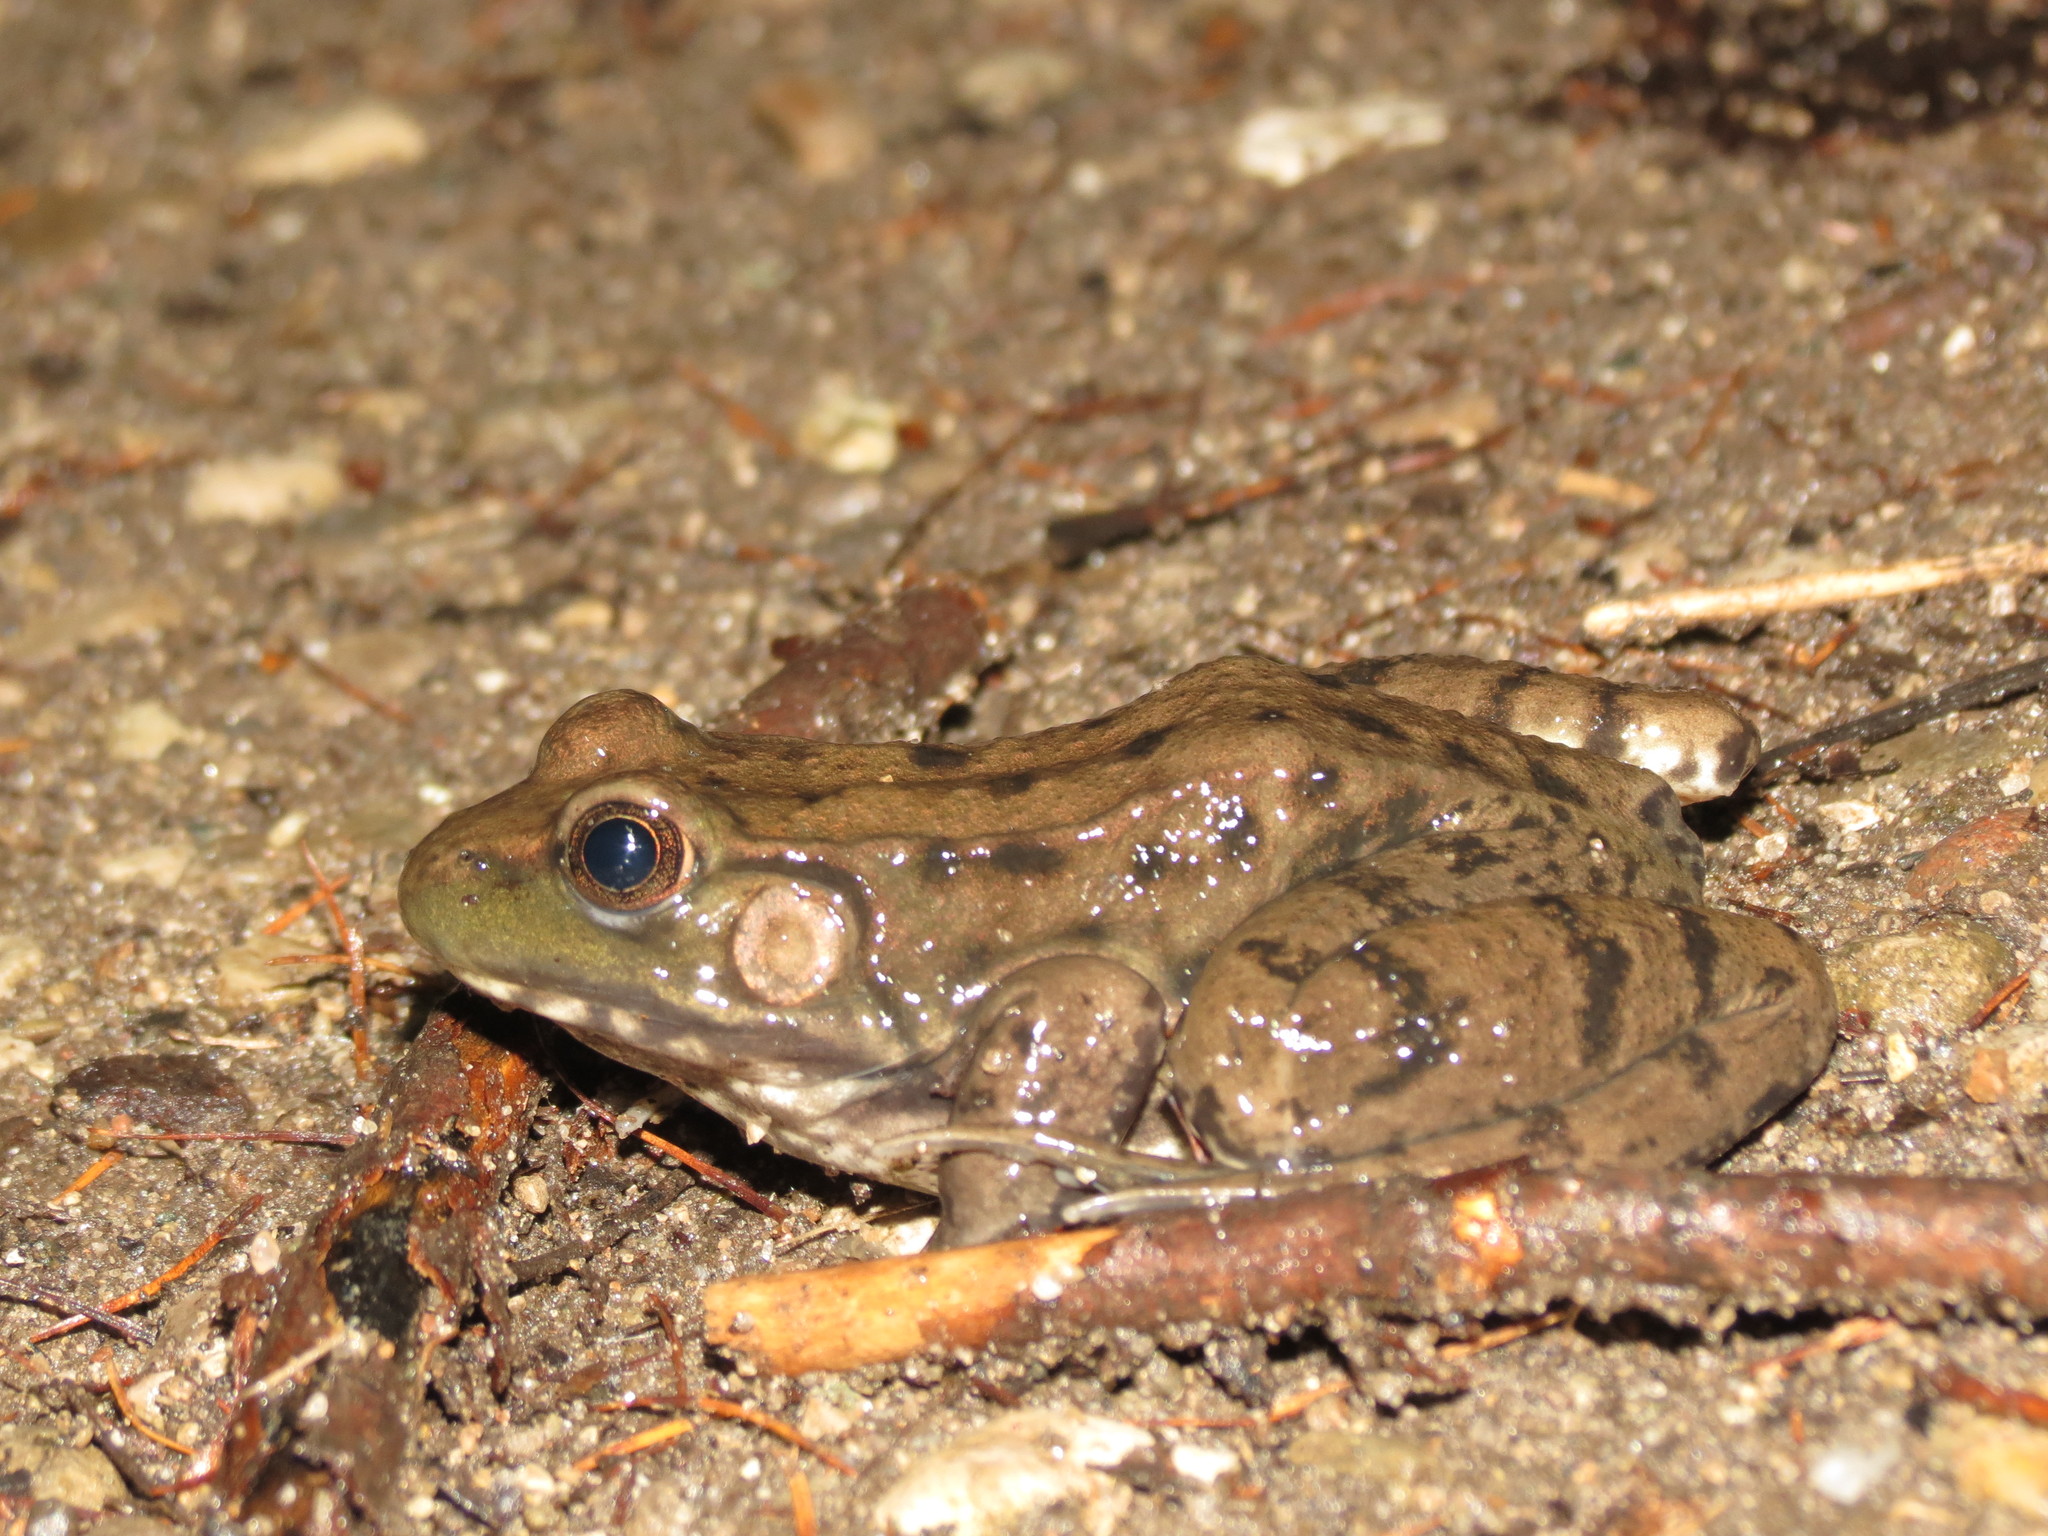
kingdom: Animalia
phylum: Chordata
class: Amphibia
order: Anura
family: Ranidae
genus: Lithobates
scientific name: Lithobates clamitans
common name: Green frog
